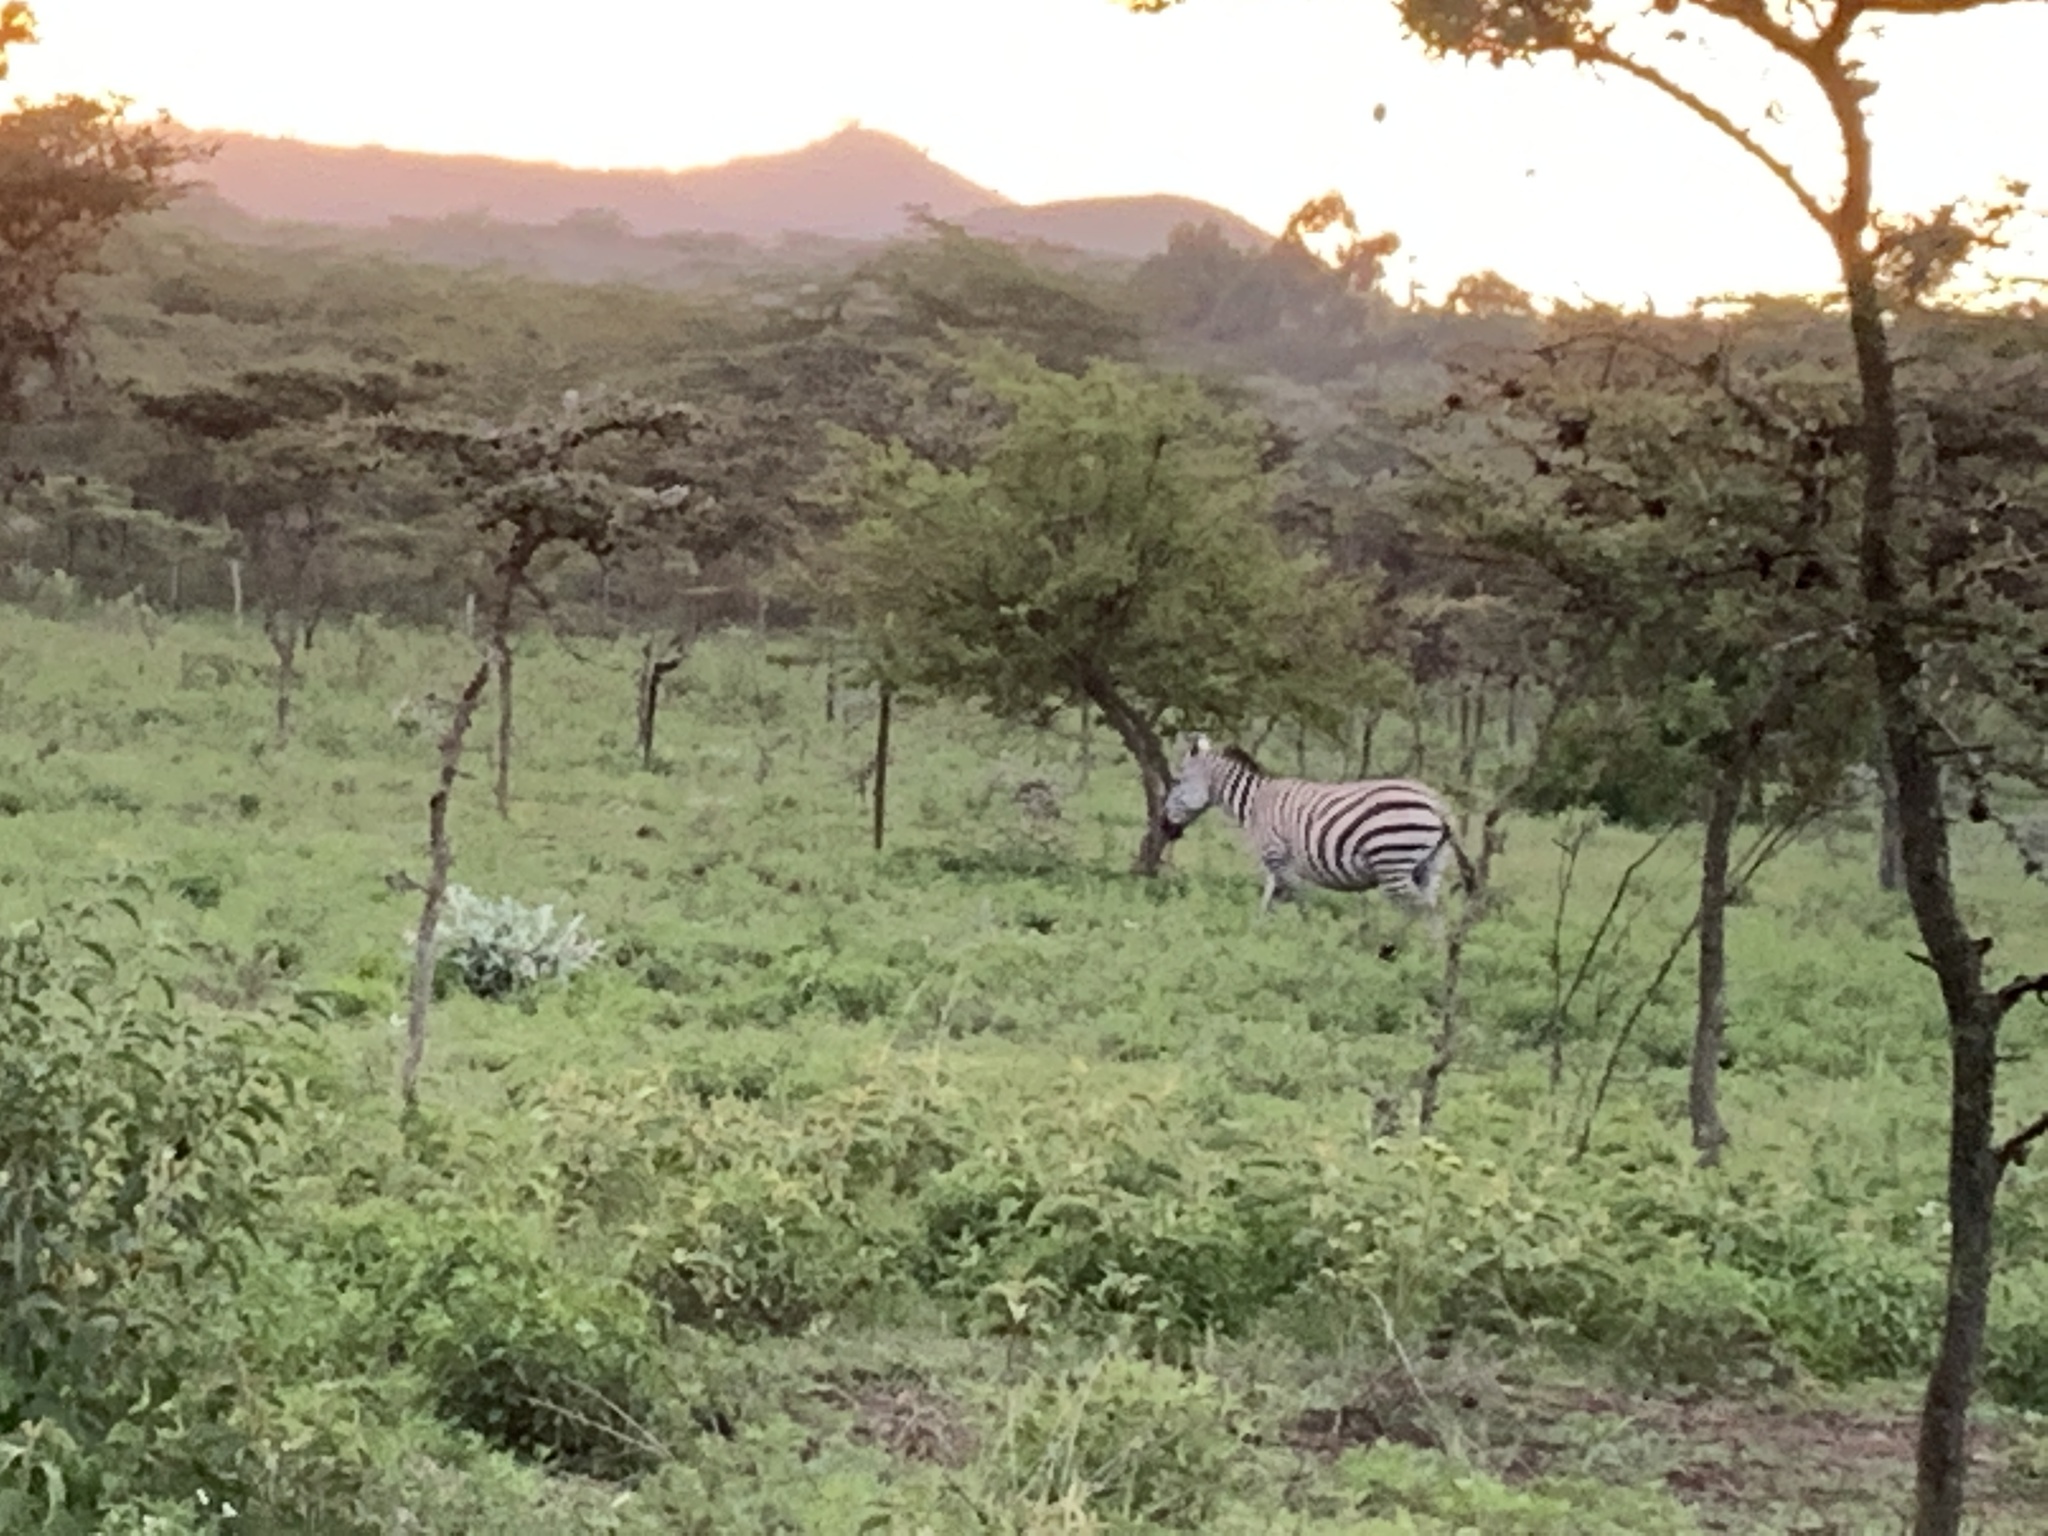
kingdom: Animalia
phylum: Chordata
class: Mammalia
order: Perissodactyla
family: Equidae
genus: Equus
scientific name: Equus quagga
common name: Plains zebra
